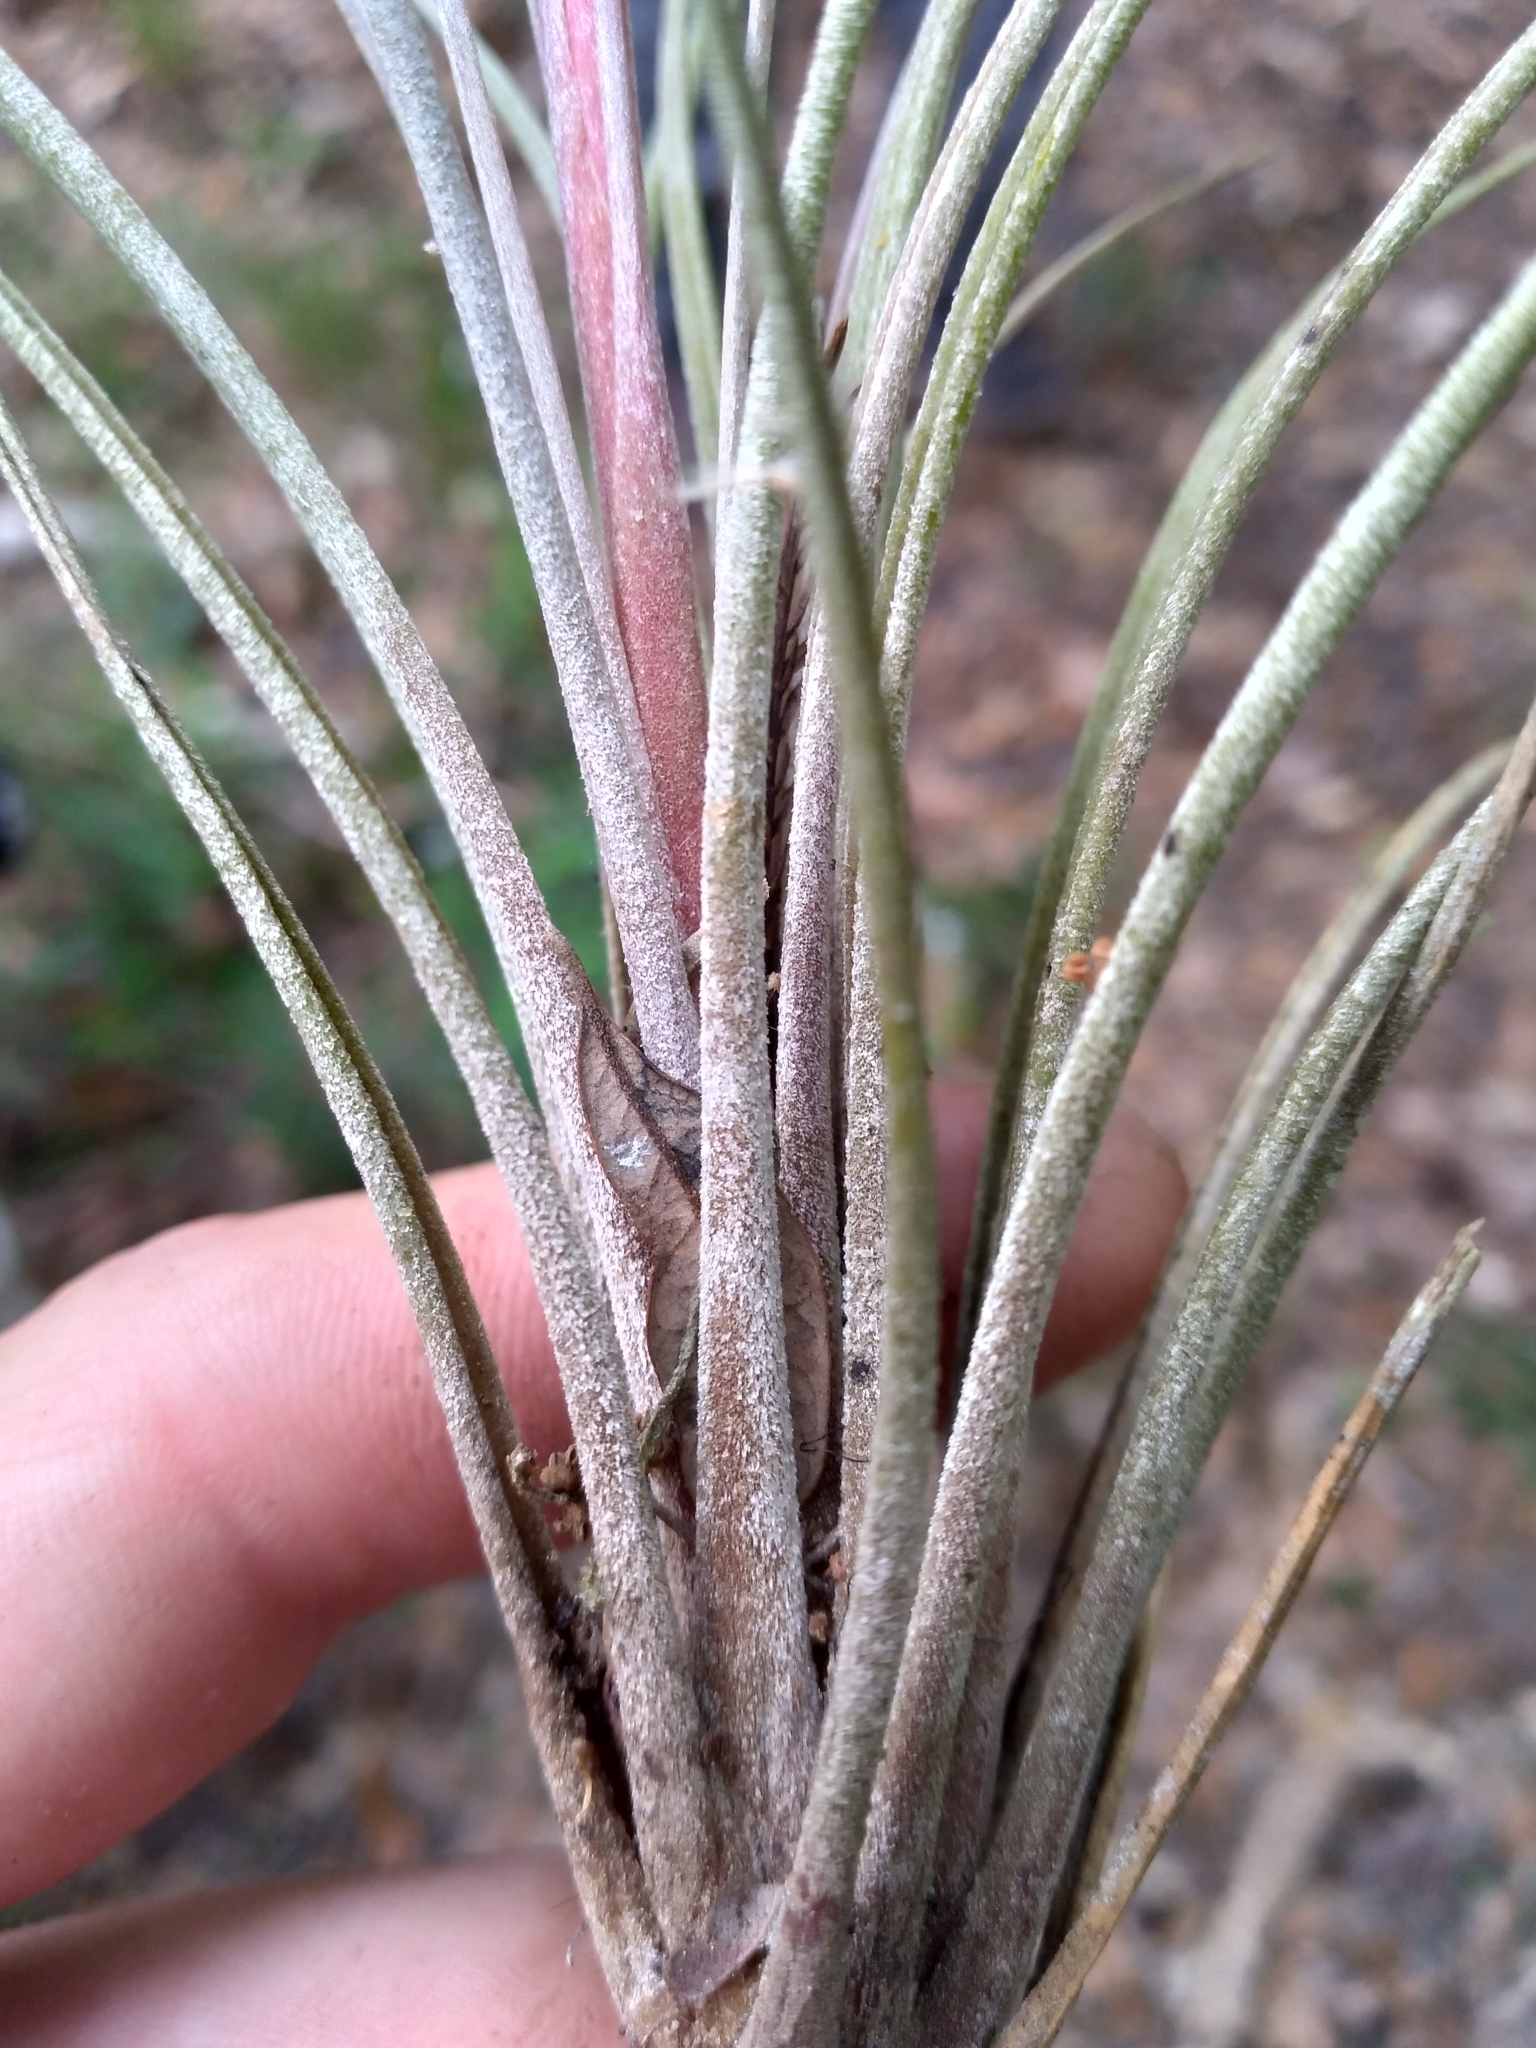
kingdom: Plantae
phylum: Tracheophyta
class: Liliopsida
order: Poales
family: Bromeliaceae
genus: Tillandsia
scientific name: Tillandsia bartramii
